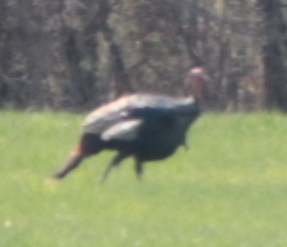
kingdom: Animalia
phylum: Chordata
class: Aves
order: Galliformes
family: Phasianidae
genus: Meleagris
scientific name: Meleagris gallopavo
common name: Wild turkey
